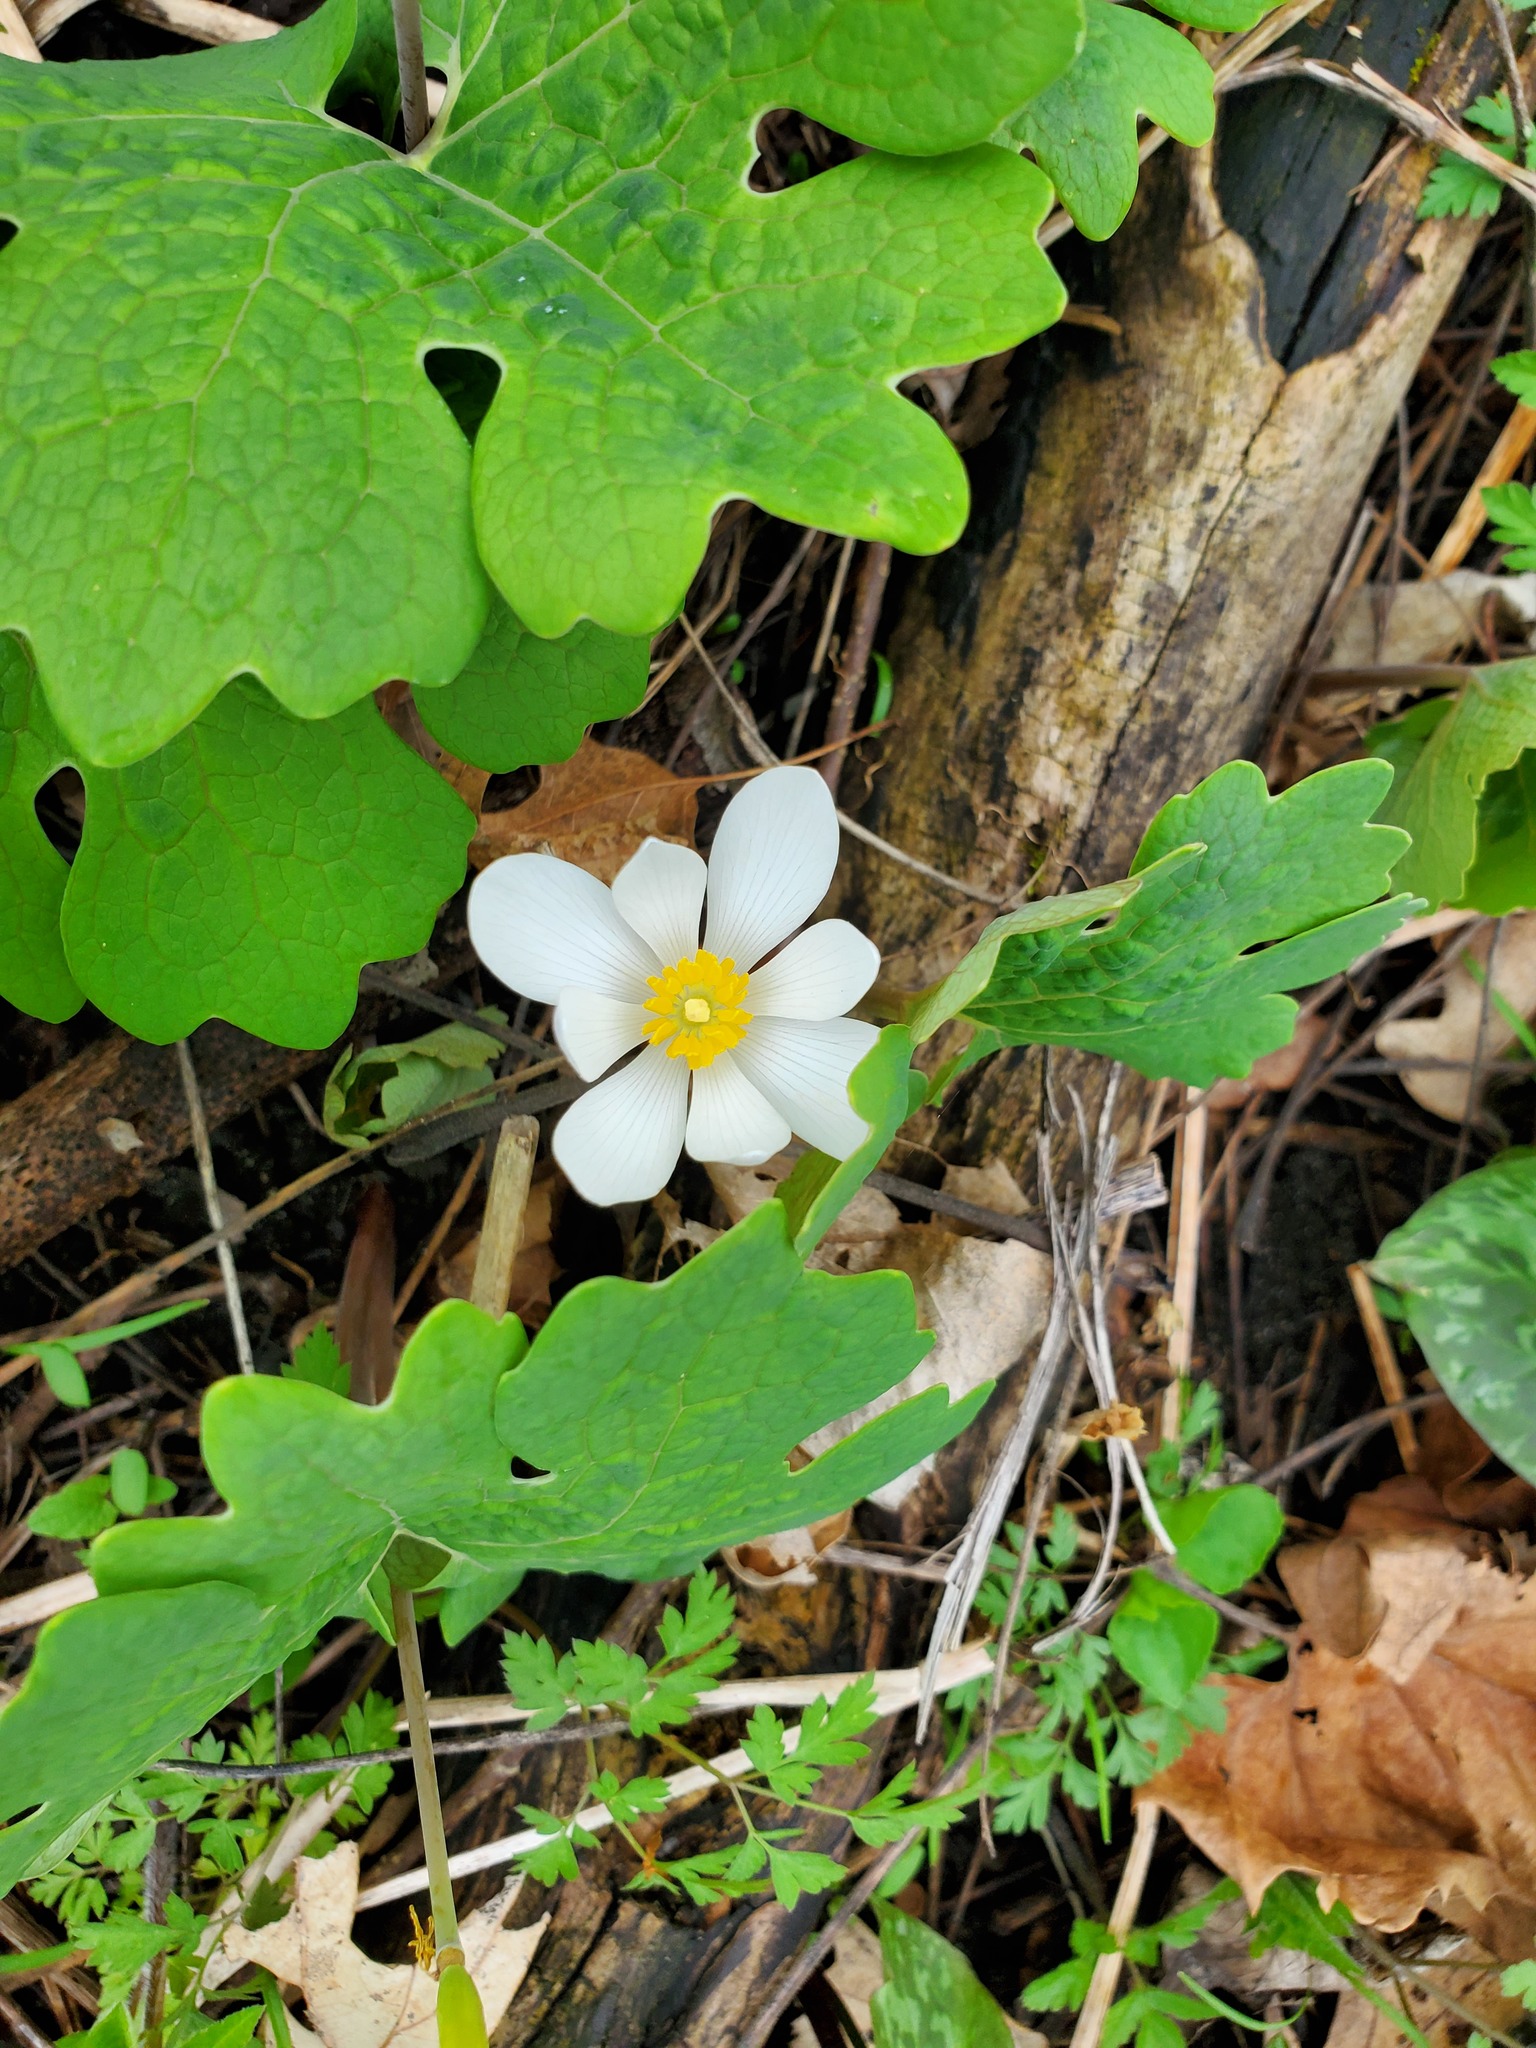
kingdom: Plantae
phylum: Tracheophyta
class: Magnoliopsida
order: Ranunculales
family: Papaveraceae
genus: Sanguinaria
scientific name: Sanguinaria canadensis
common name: Bloodroot
